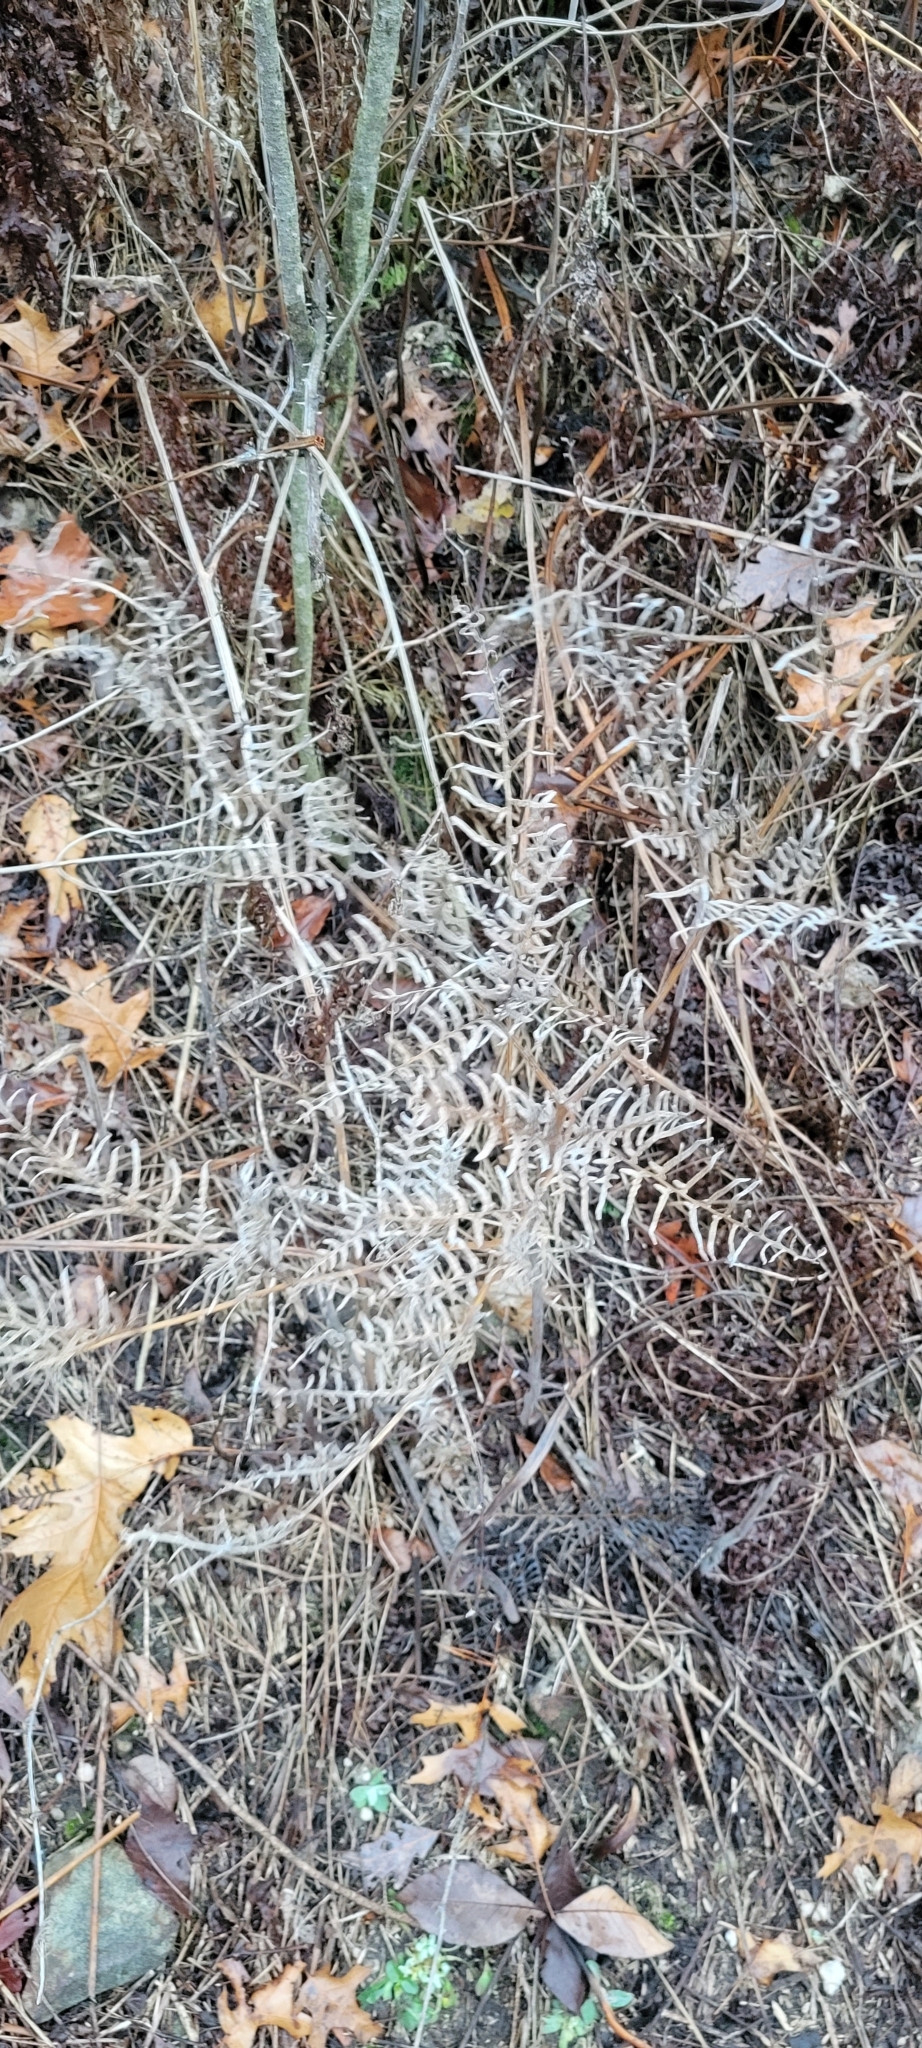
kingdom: Plantae
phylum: Tracheophyta
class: Polypodiopsida
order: Polypodiales
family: Dennstaedtiaceae
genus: Pteridium
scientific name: Pteridium aquilinum
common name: Bracken
